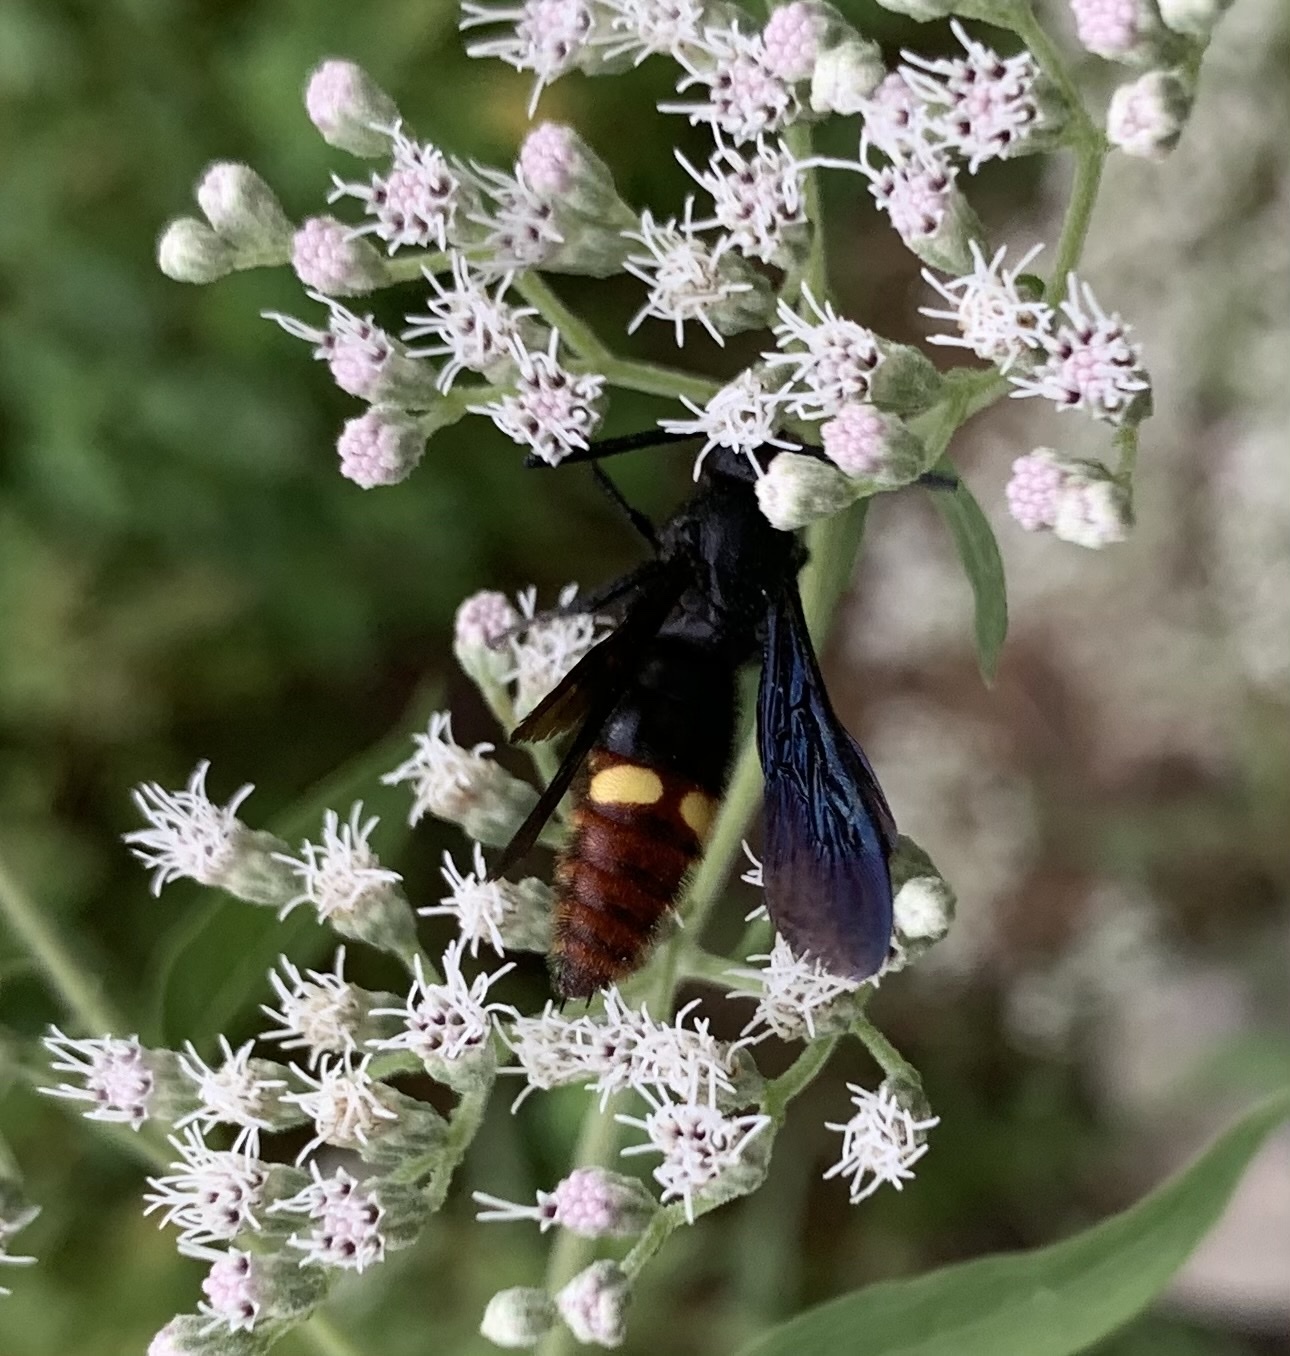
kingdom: Animalia
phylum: Arthropoda
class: Insecta
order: Hymenoptera
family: Scoliidae
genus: Scolia
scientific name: Scolia dubia
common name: Blue-winged scoliid wasp
